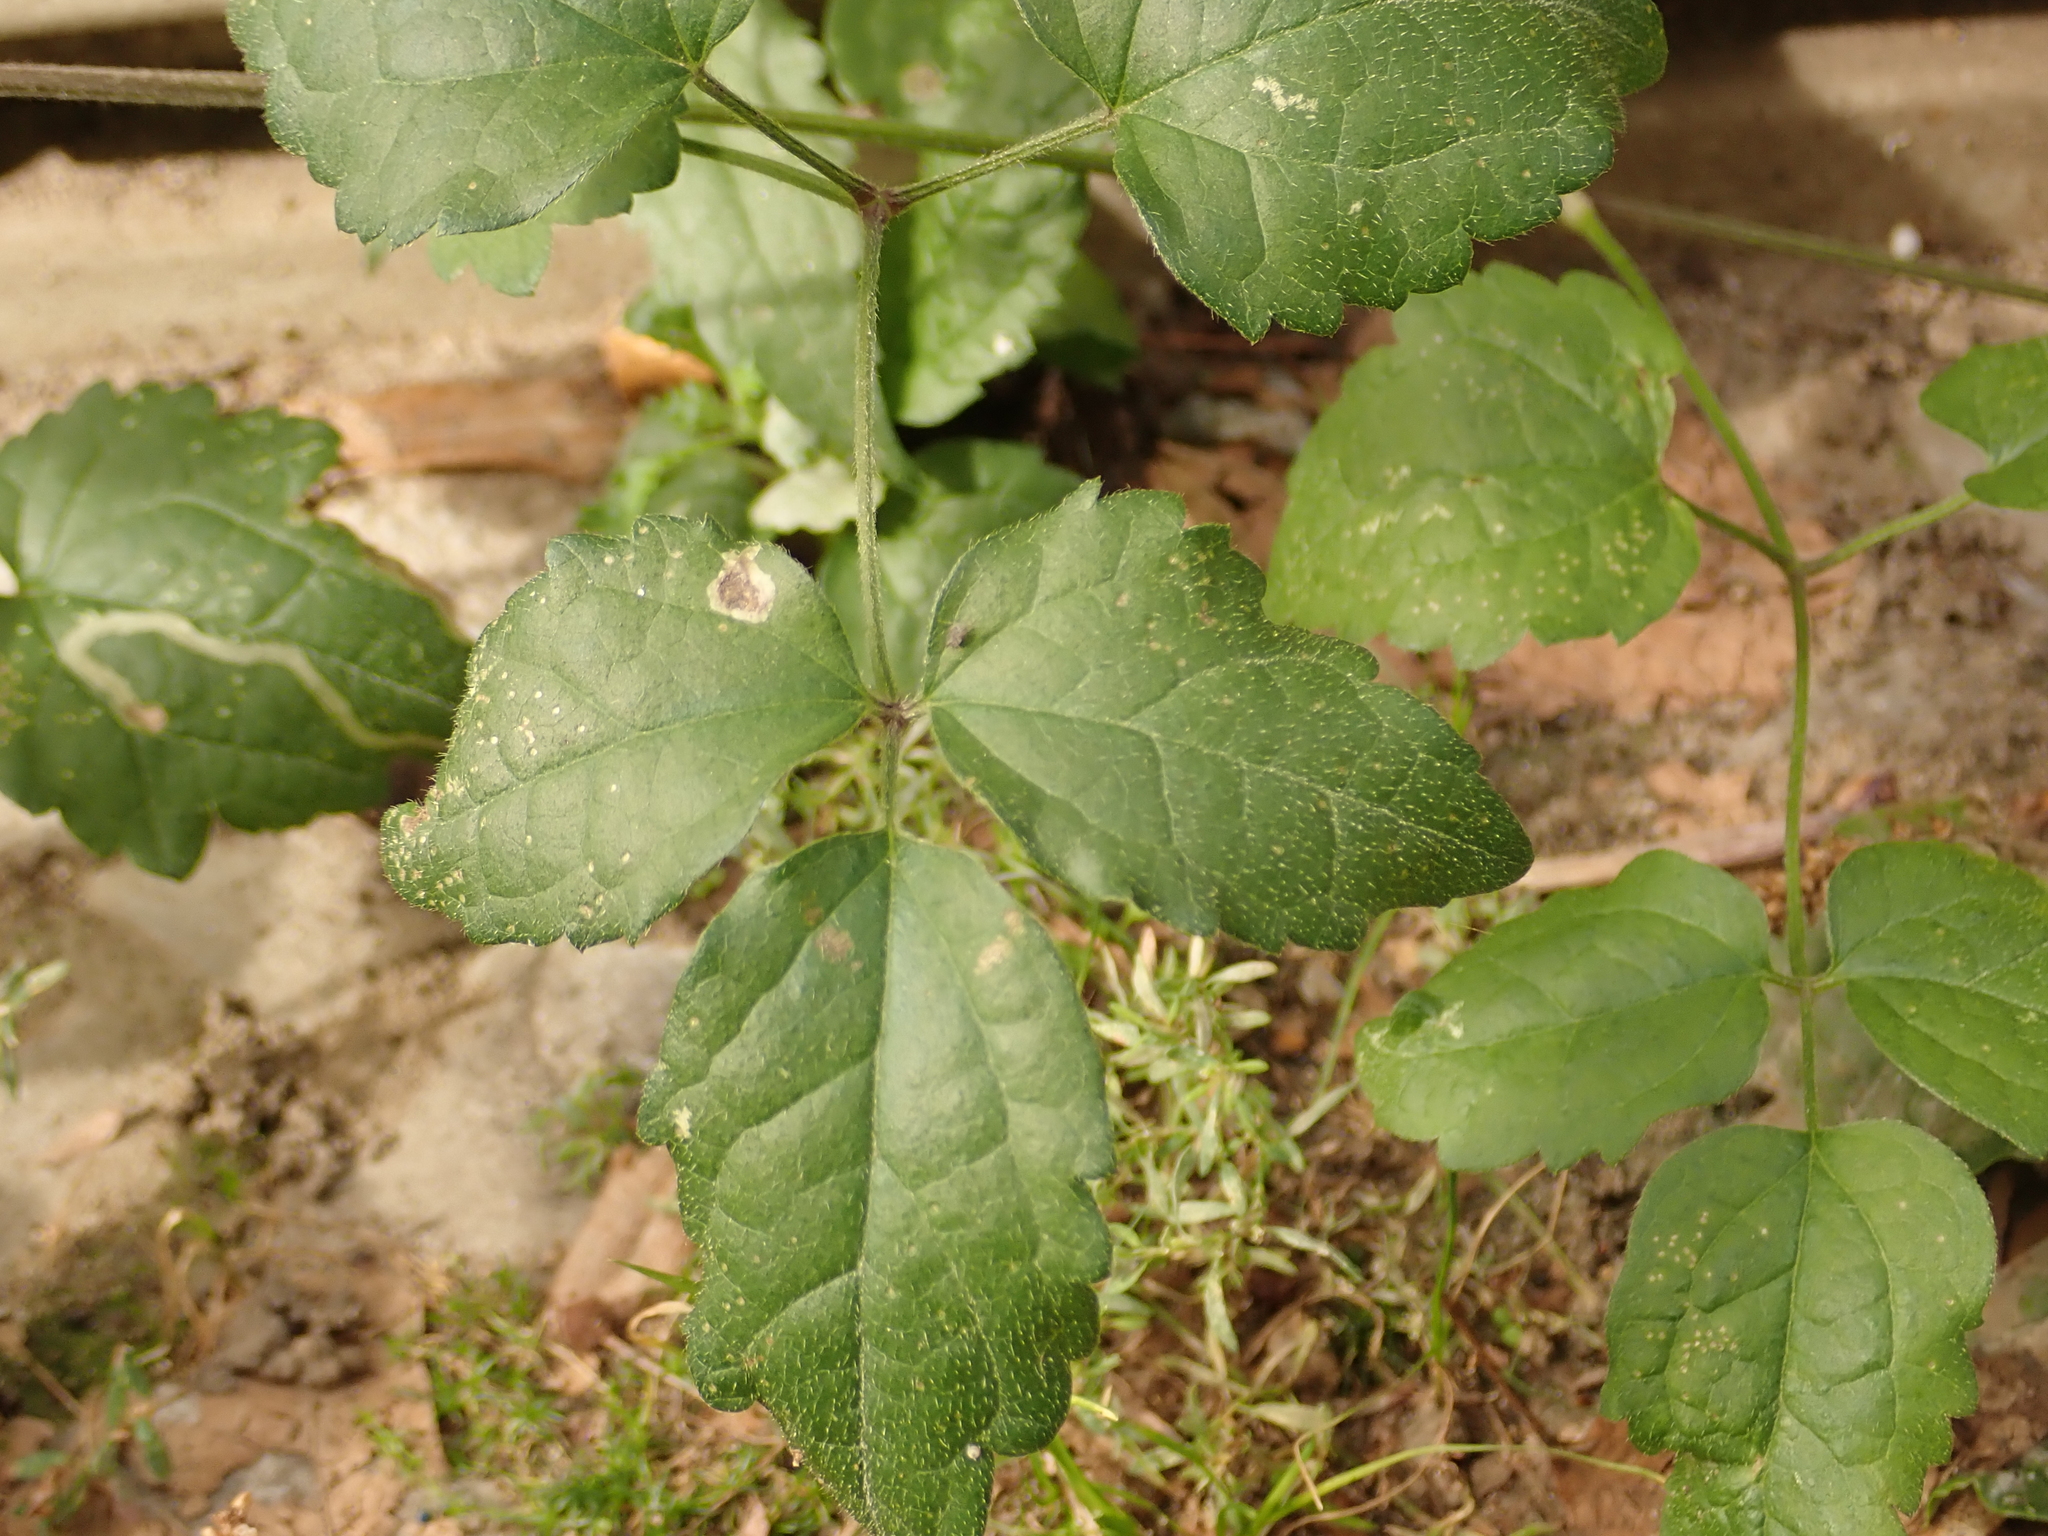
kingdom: Plantae
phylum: Tracheophyta
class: Magnoliopsida
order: Ranunculales
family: Ranunculaceae
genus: Clematis
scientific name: Clematis vitalba
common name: Evergreen clematis
